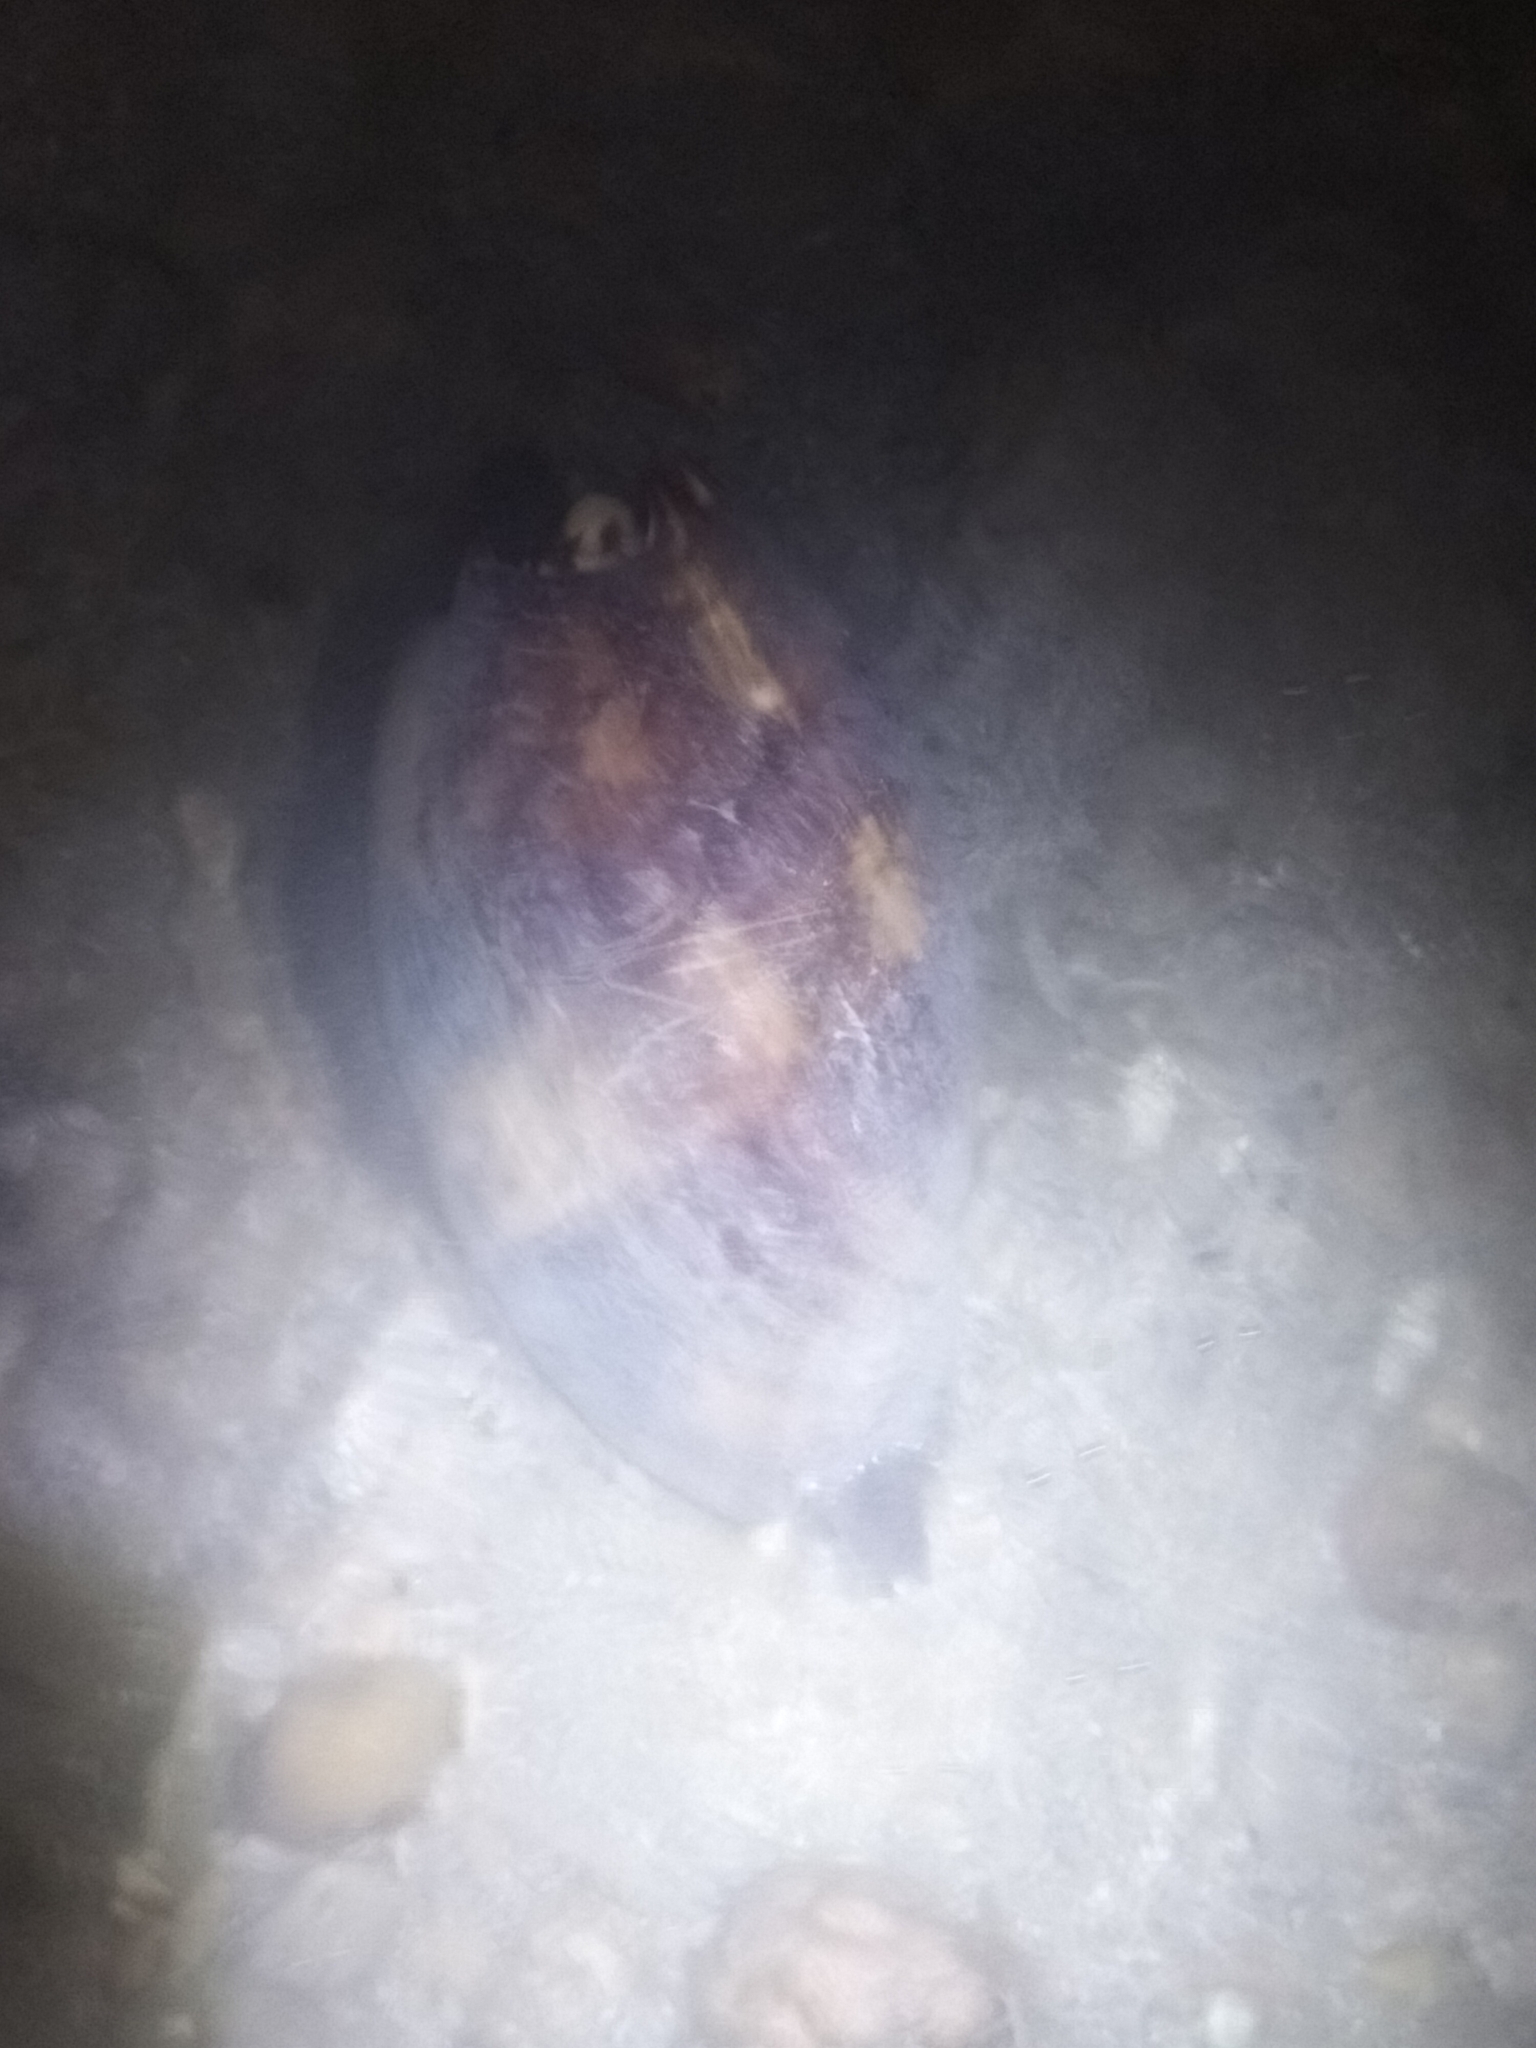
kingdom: Animalia
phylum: Mollusca
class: Gastropoda
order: Neogastropoda
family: Volutidae
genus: Melo
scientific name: Melo amphora
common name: Diadem volute
